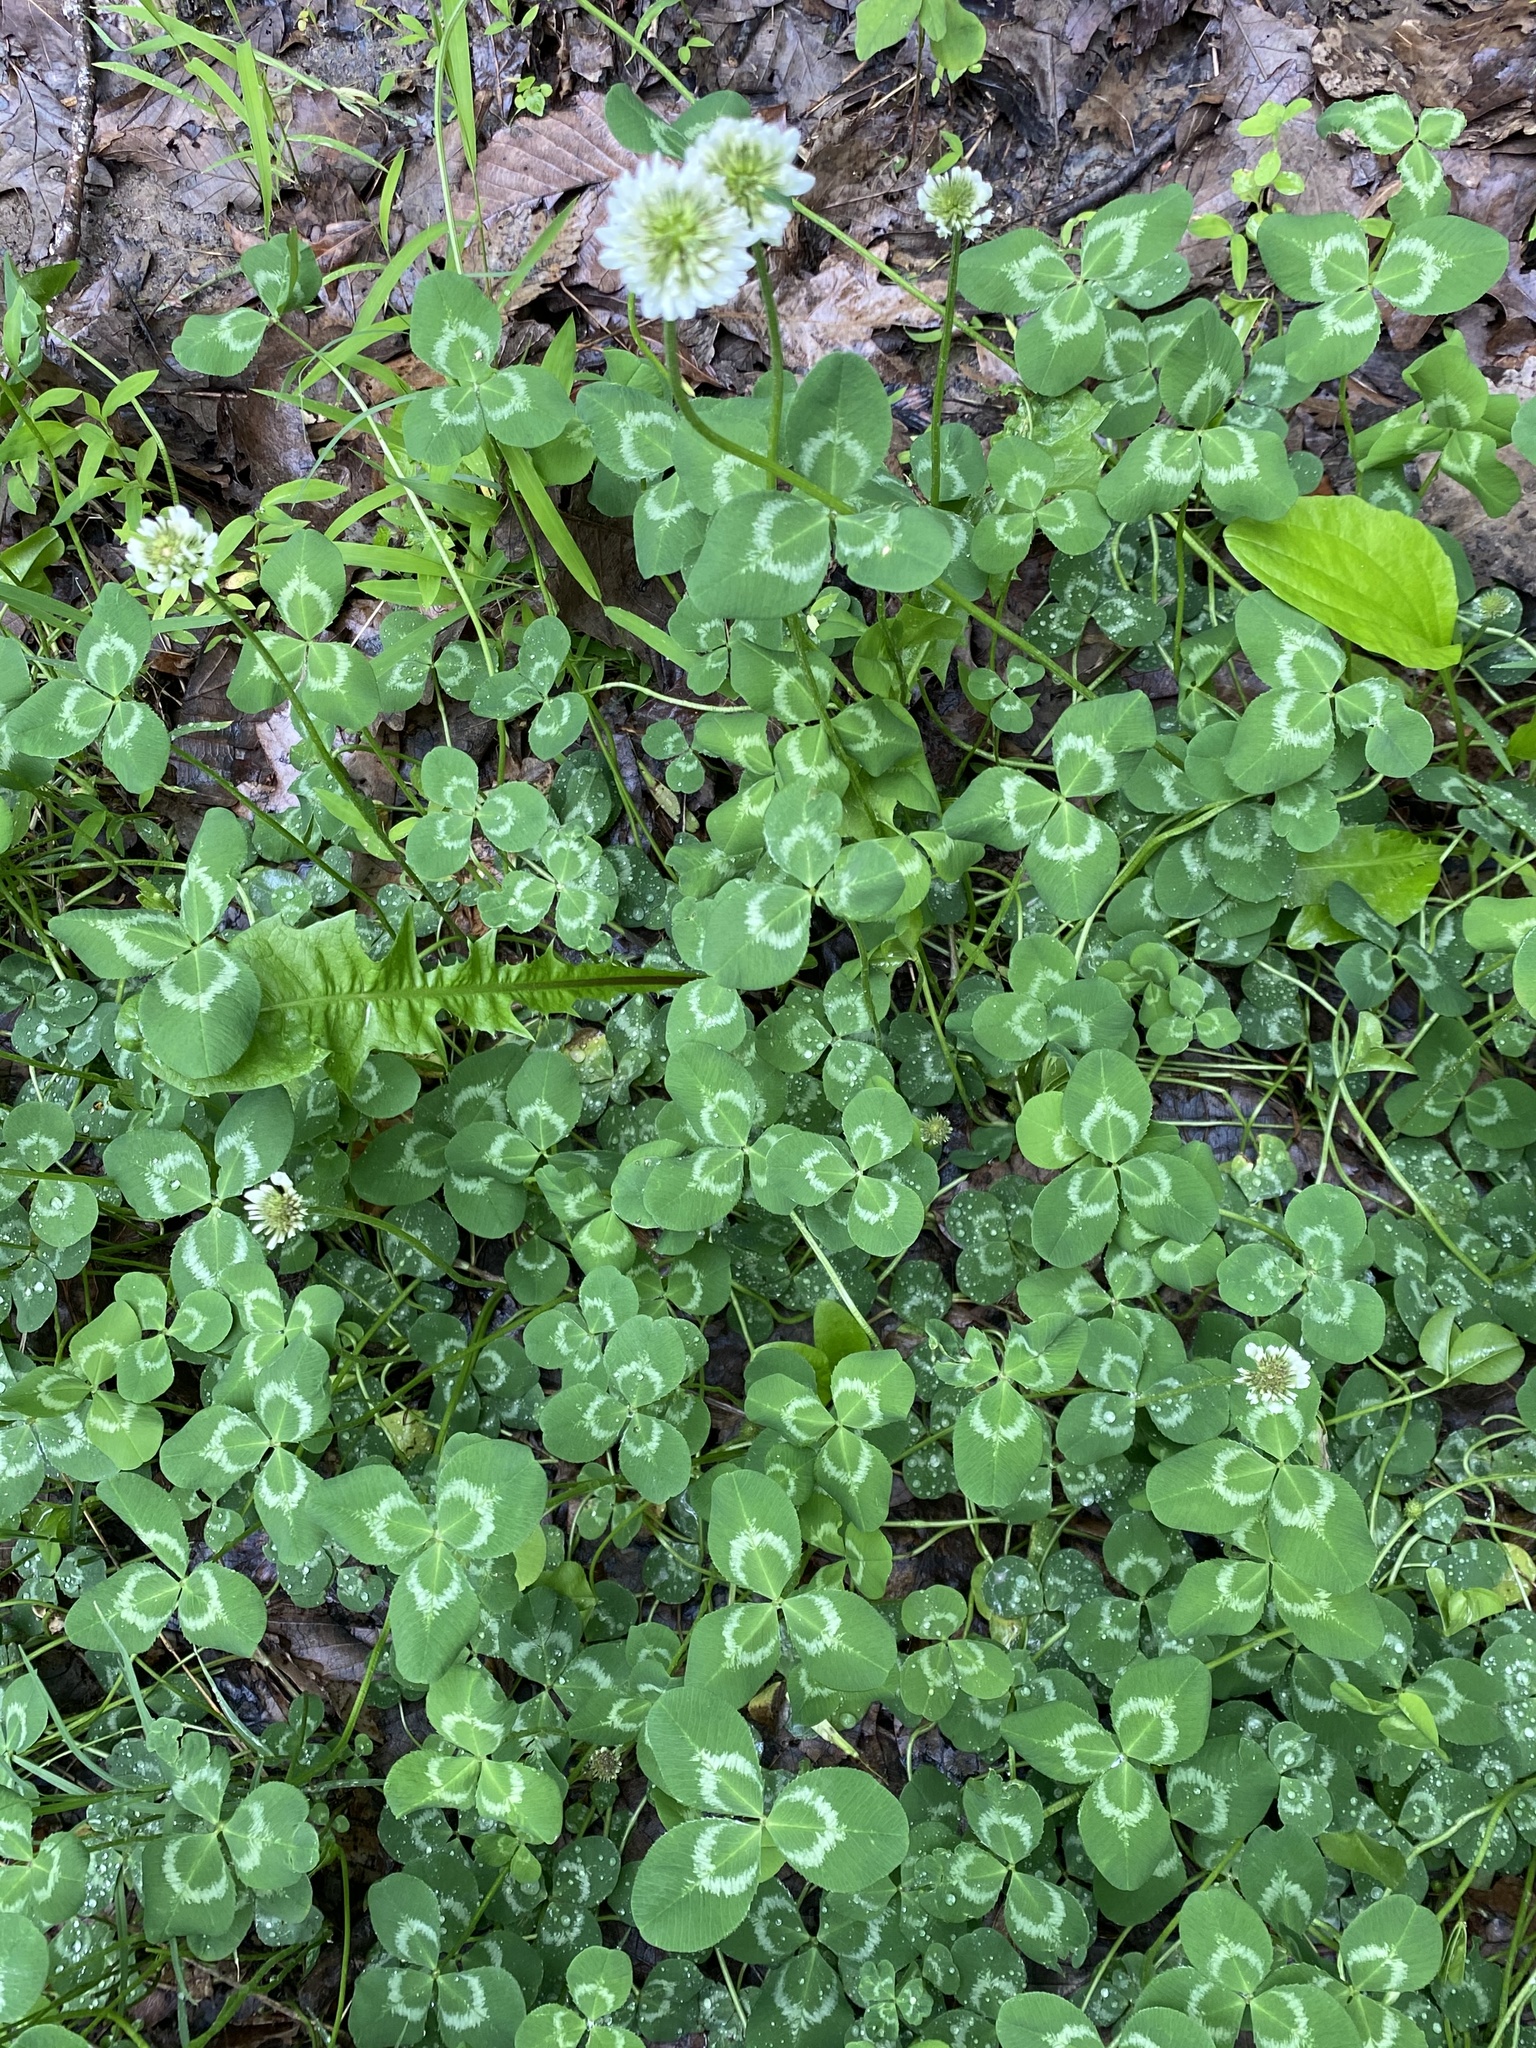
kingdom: Plantae
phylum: Tracheophyta
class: Magnoliopsida
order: Fabales
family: Fabaceae
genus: Trifolium
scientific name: Trifolium repens
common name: White clover
